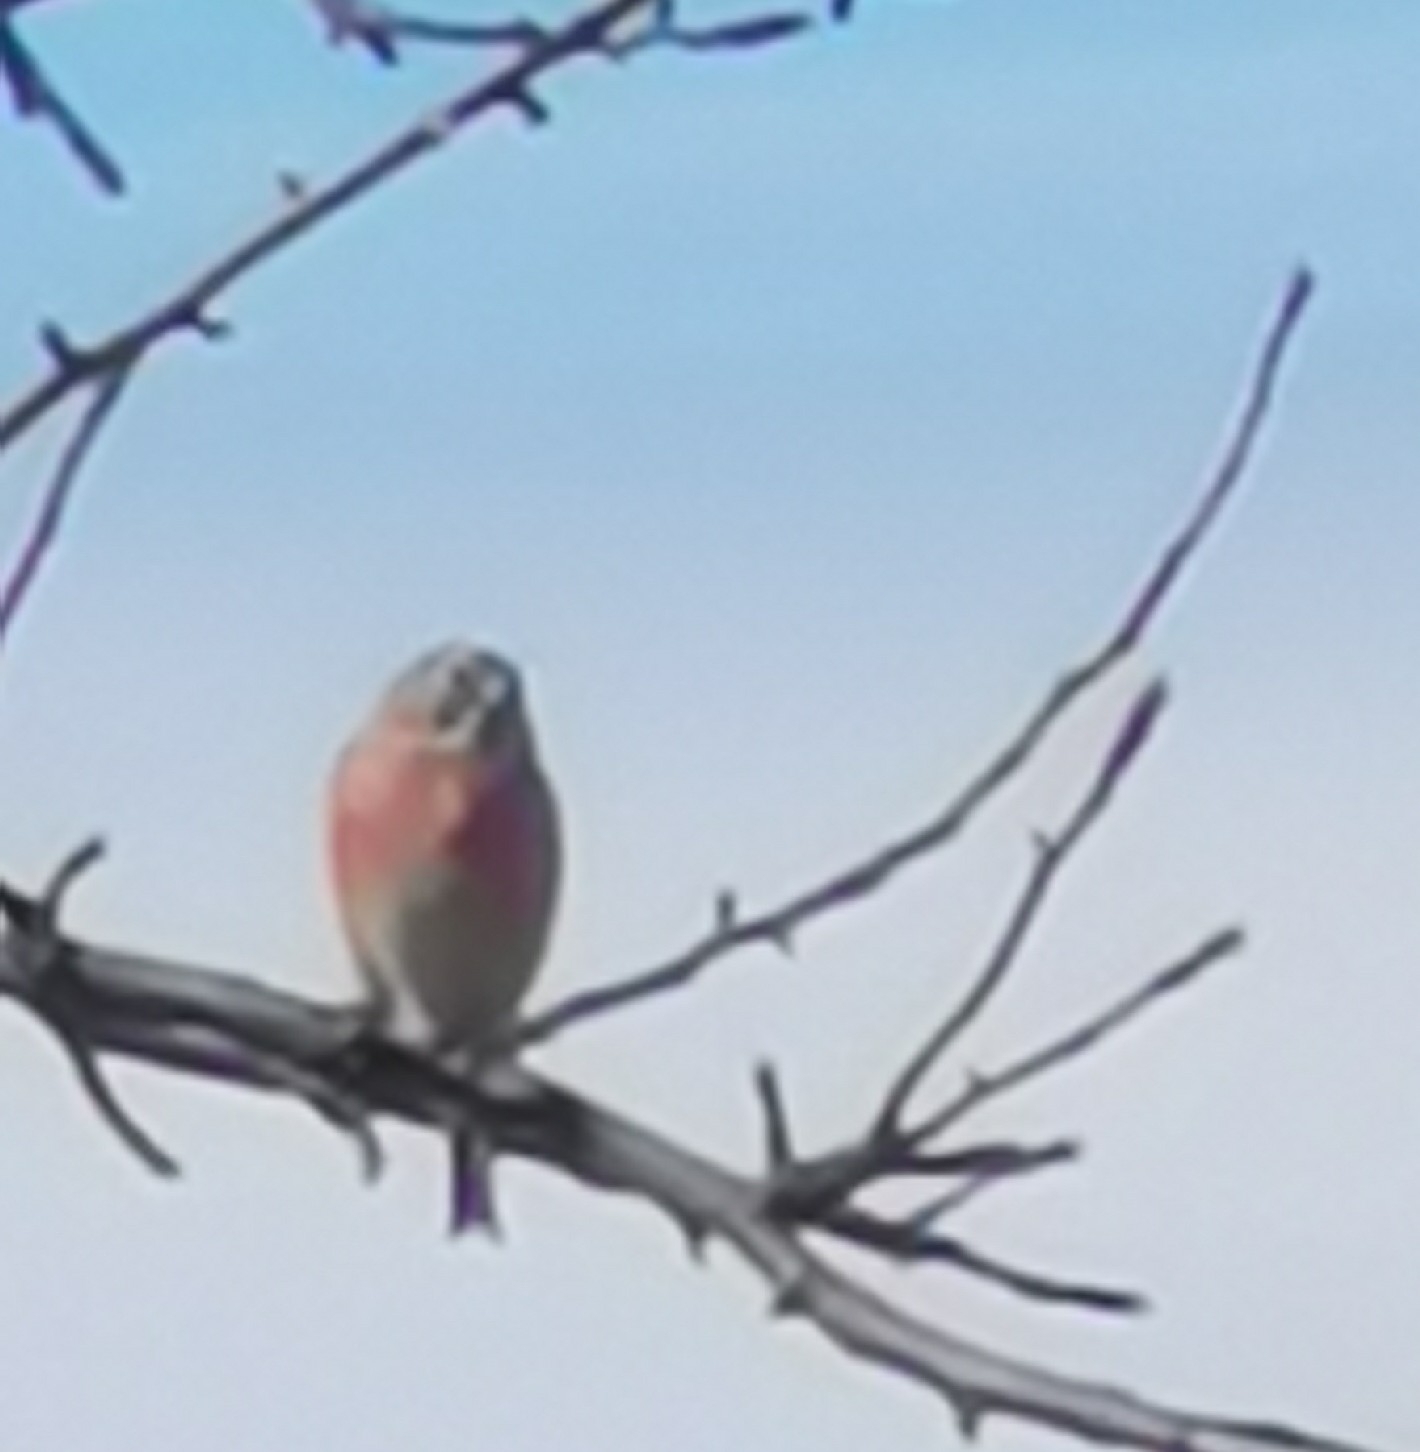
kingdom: Animalia
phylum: Chordata
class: Aves
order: Passeriformes
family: Fringillidae
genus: Linaria
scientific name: Linaria cannabina
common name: Common linnet
